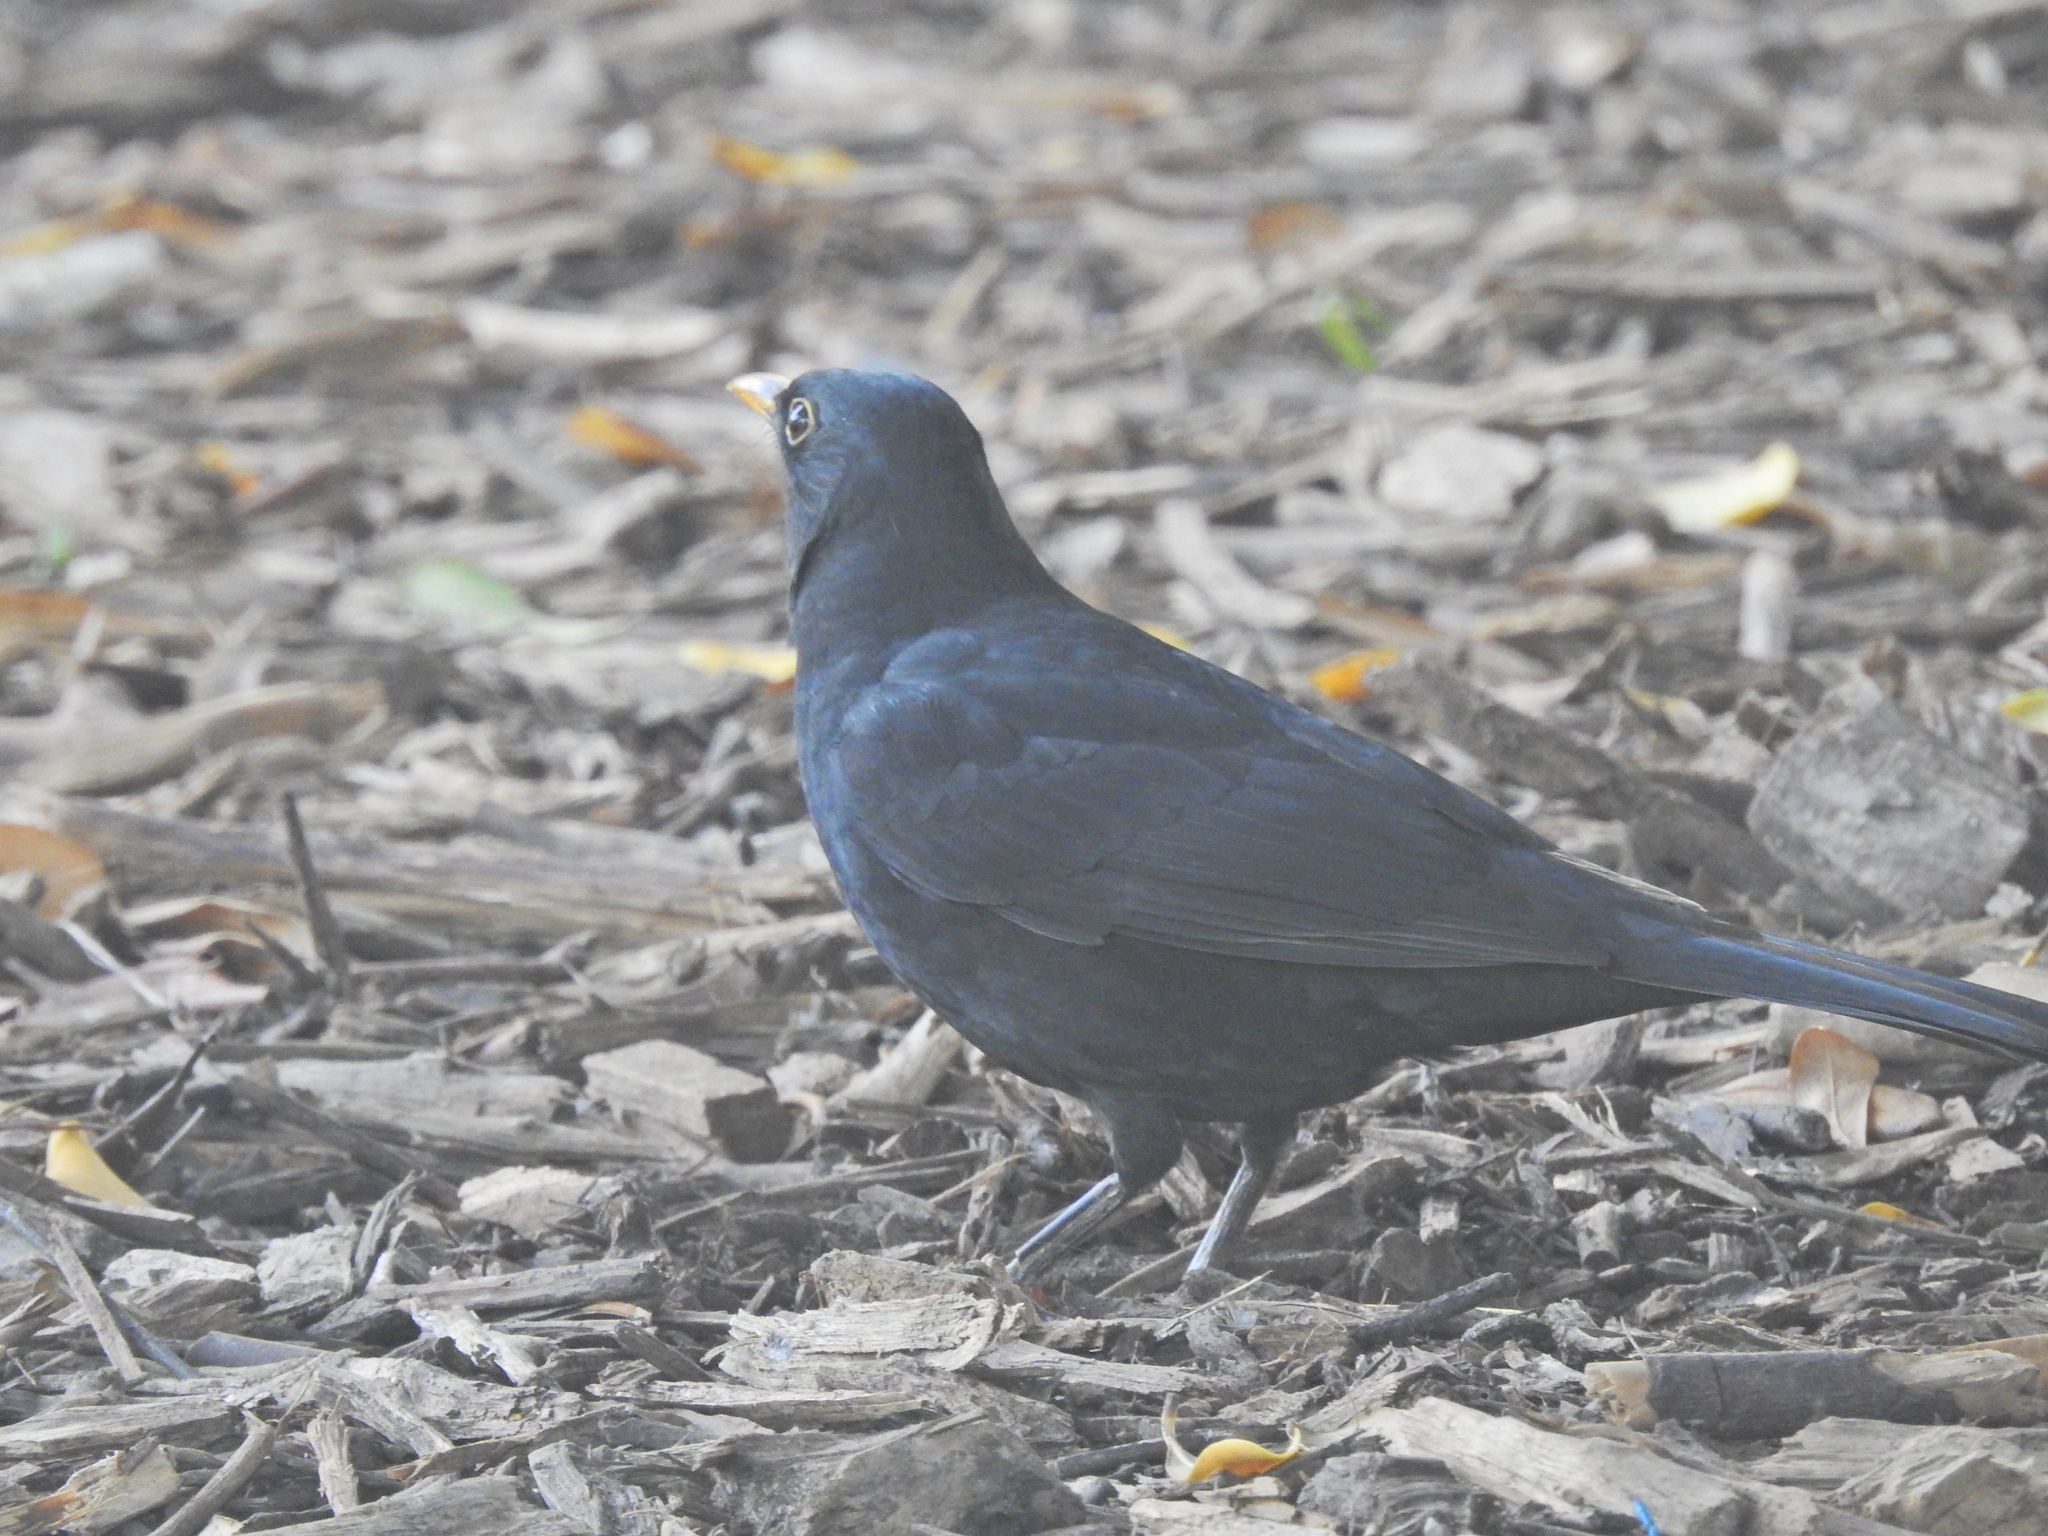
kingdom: Animalia
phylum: Chordata
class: Aves
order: Passeriformes
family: Turdidae
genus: Turdus
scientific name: Turdus merula
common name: Common blackbird
